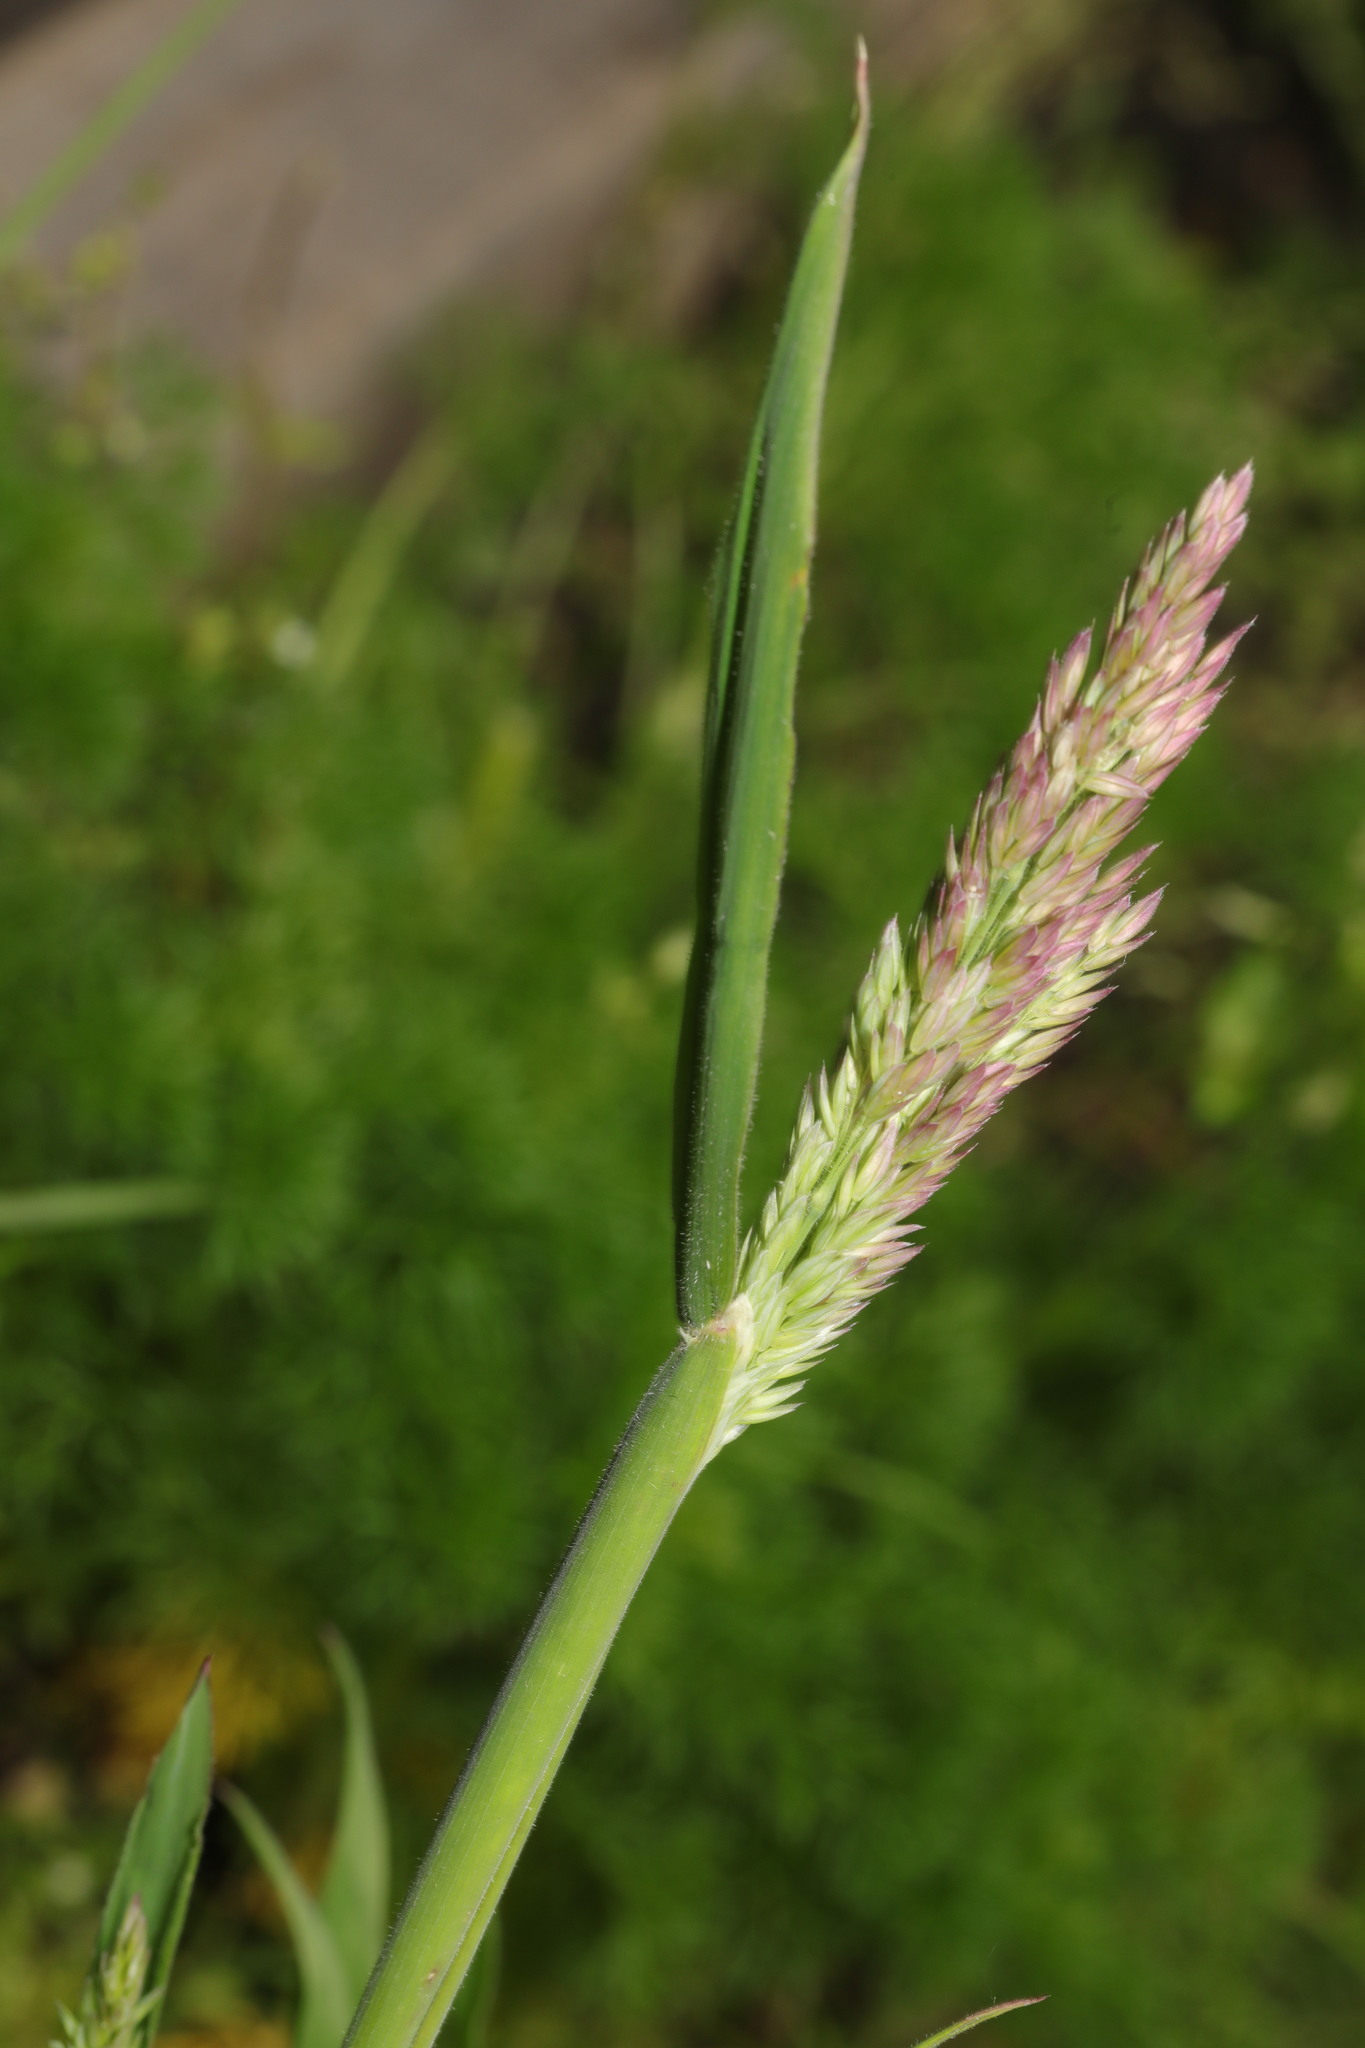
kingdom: Plantae
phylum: Tracheophyta
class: Liliopsida
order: Poales
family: Poaceae
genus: Holcus
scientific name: Holcus lanatus
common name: Yorkshire-fog
